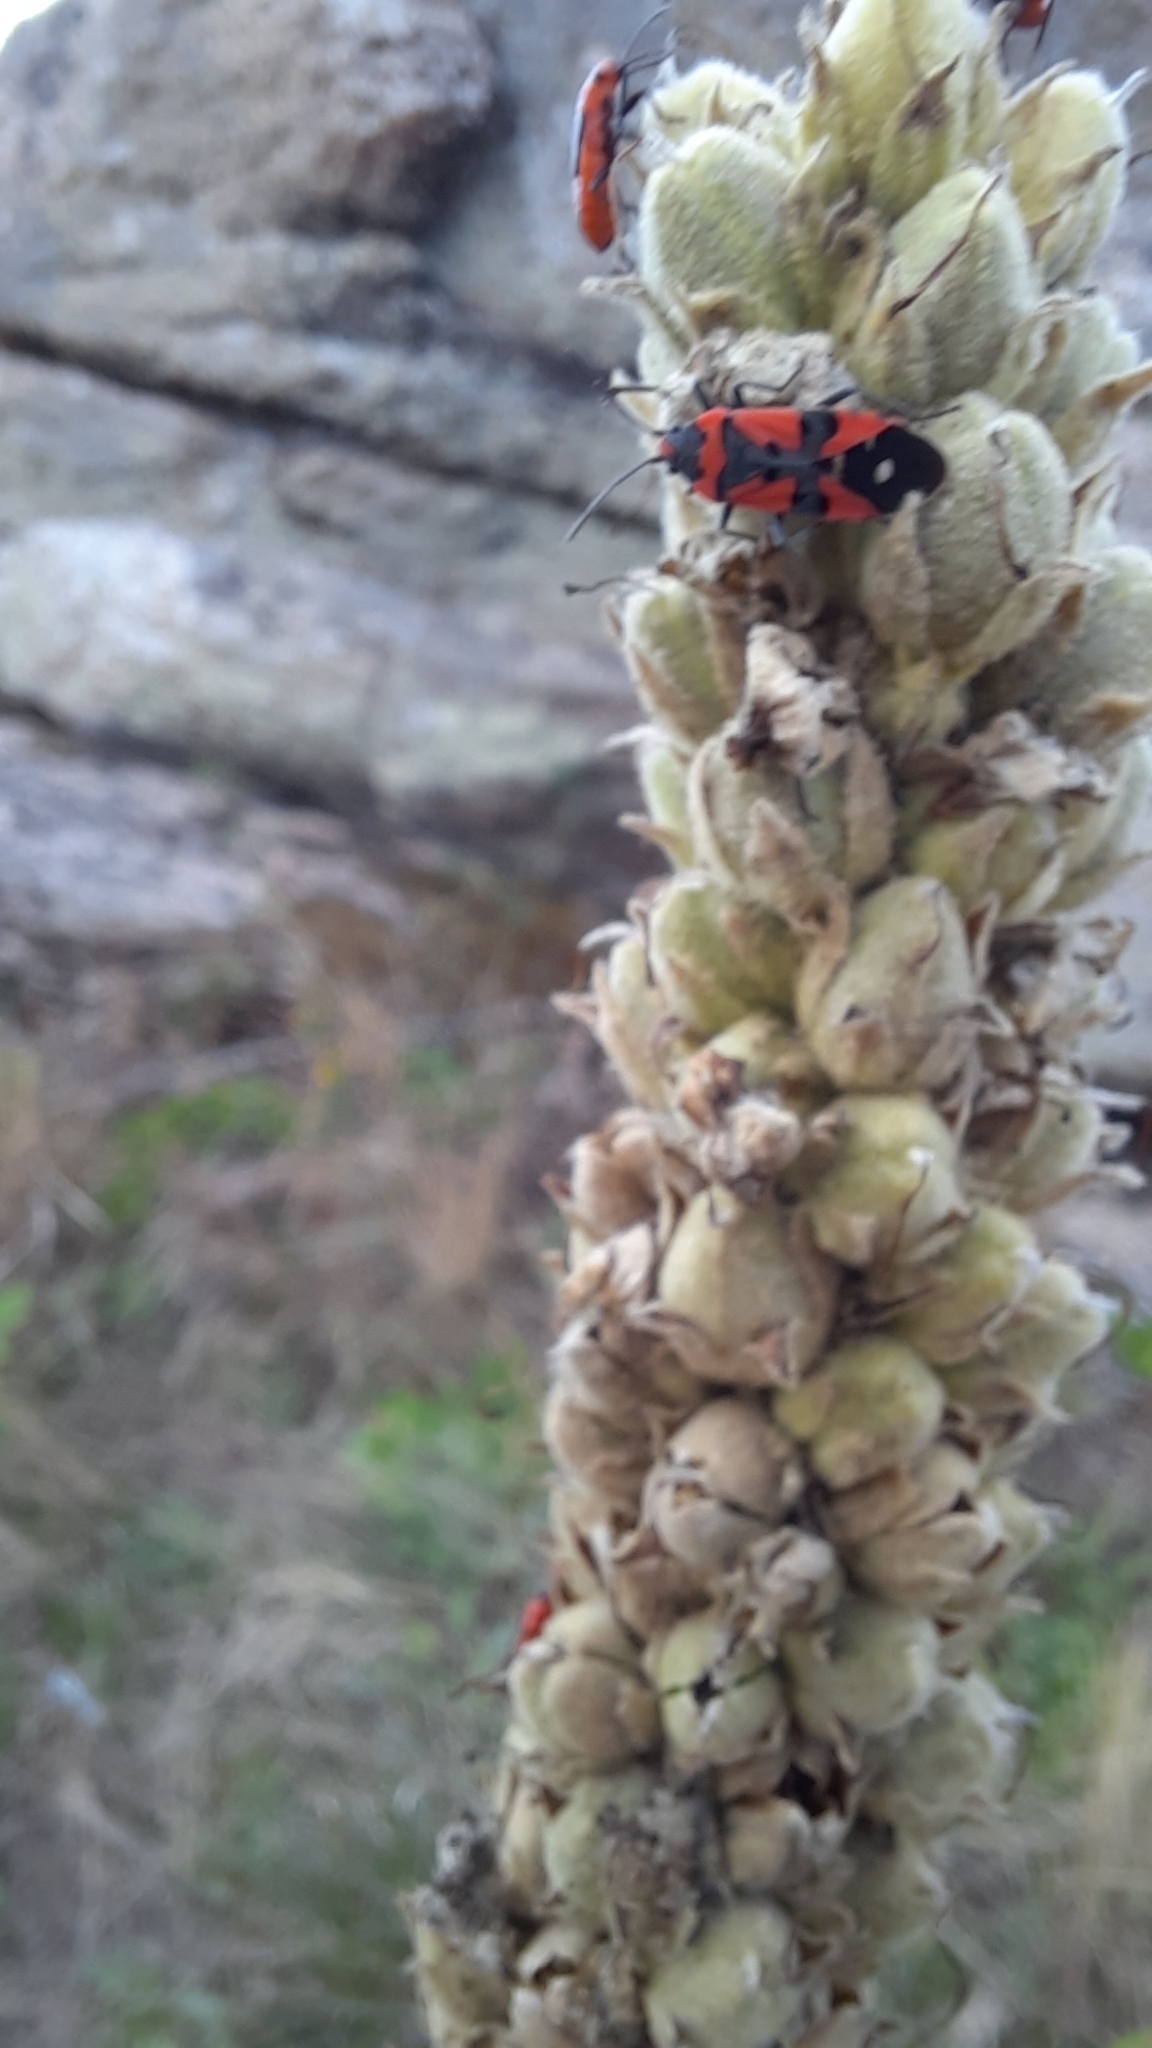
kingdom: Animalia
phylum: Arthropoda
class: Insecta
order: Hemiptera
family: Lygaeidae
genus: Lygaeus
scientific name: Lygaeus equestris
